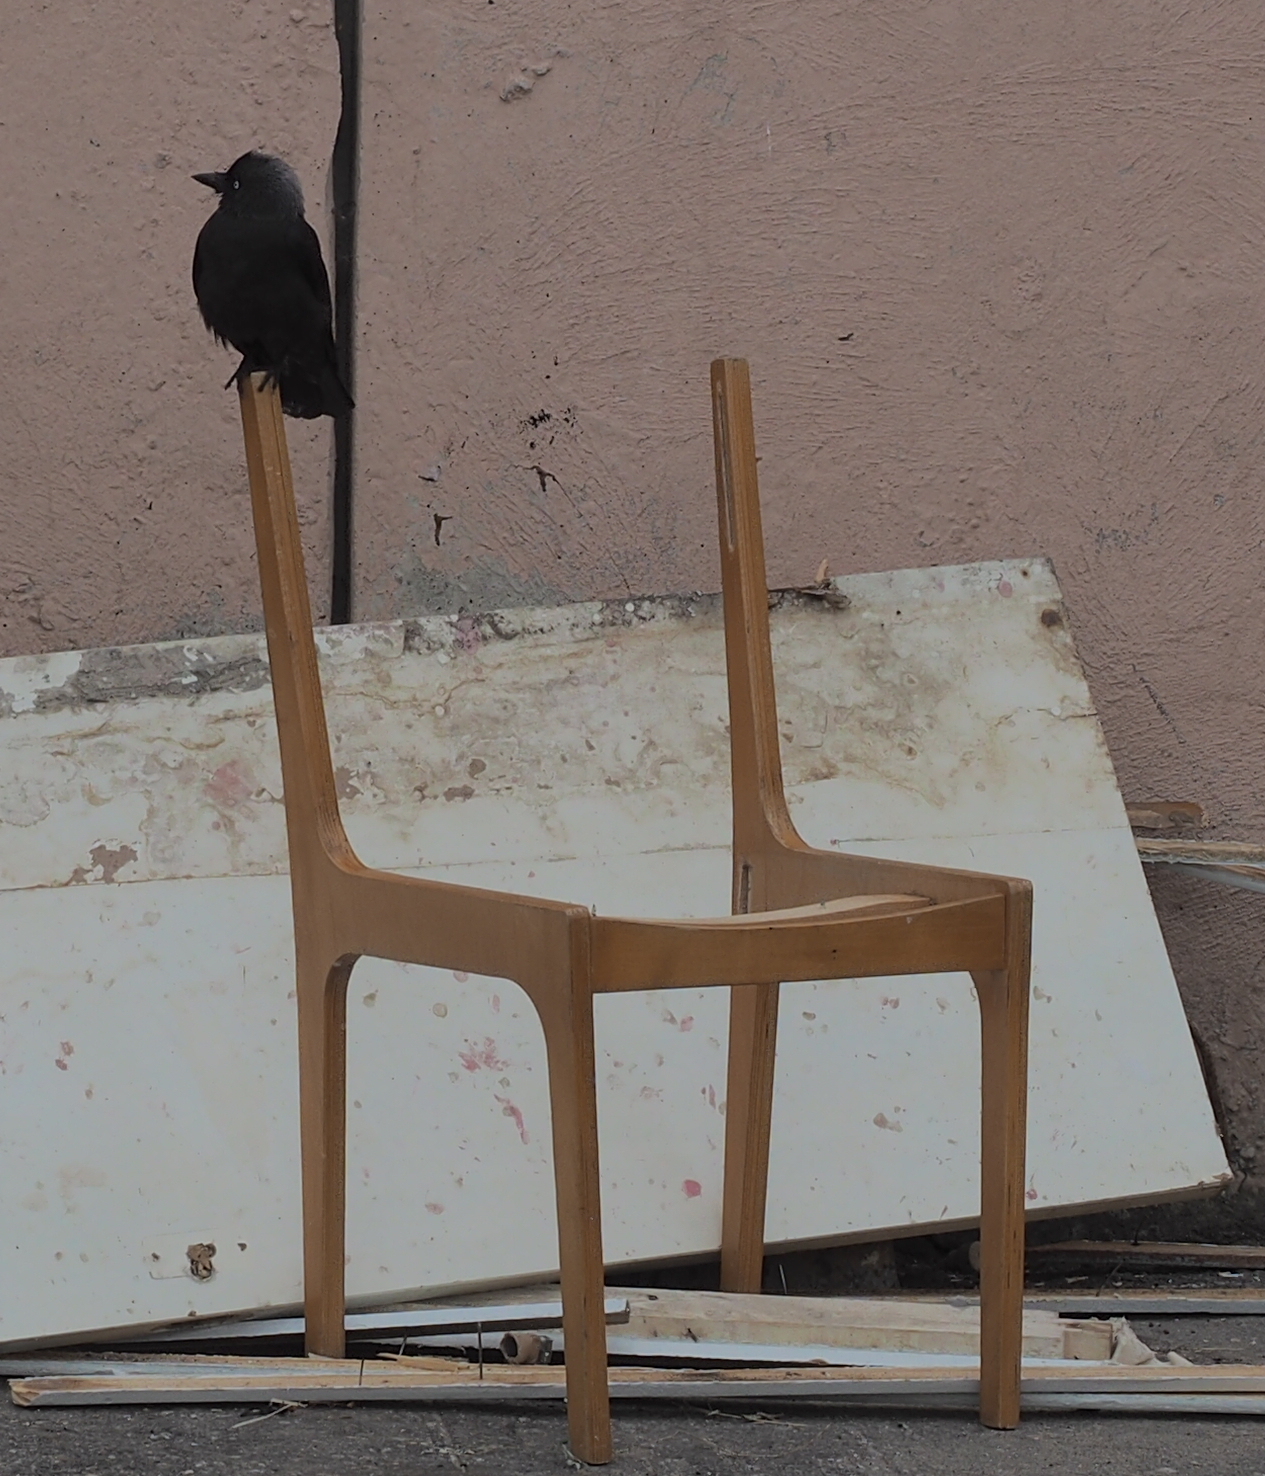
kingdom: Animalia
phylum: Chordata
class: Aves
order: Passeriformes
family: Corvidae
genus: Coloeus
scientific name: Coloeus monedula
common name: Western jackdaw
